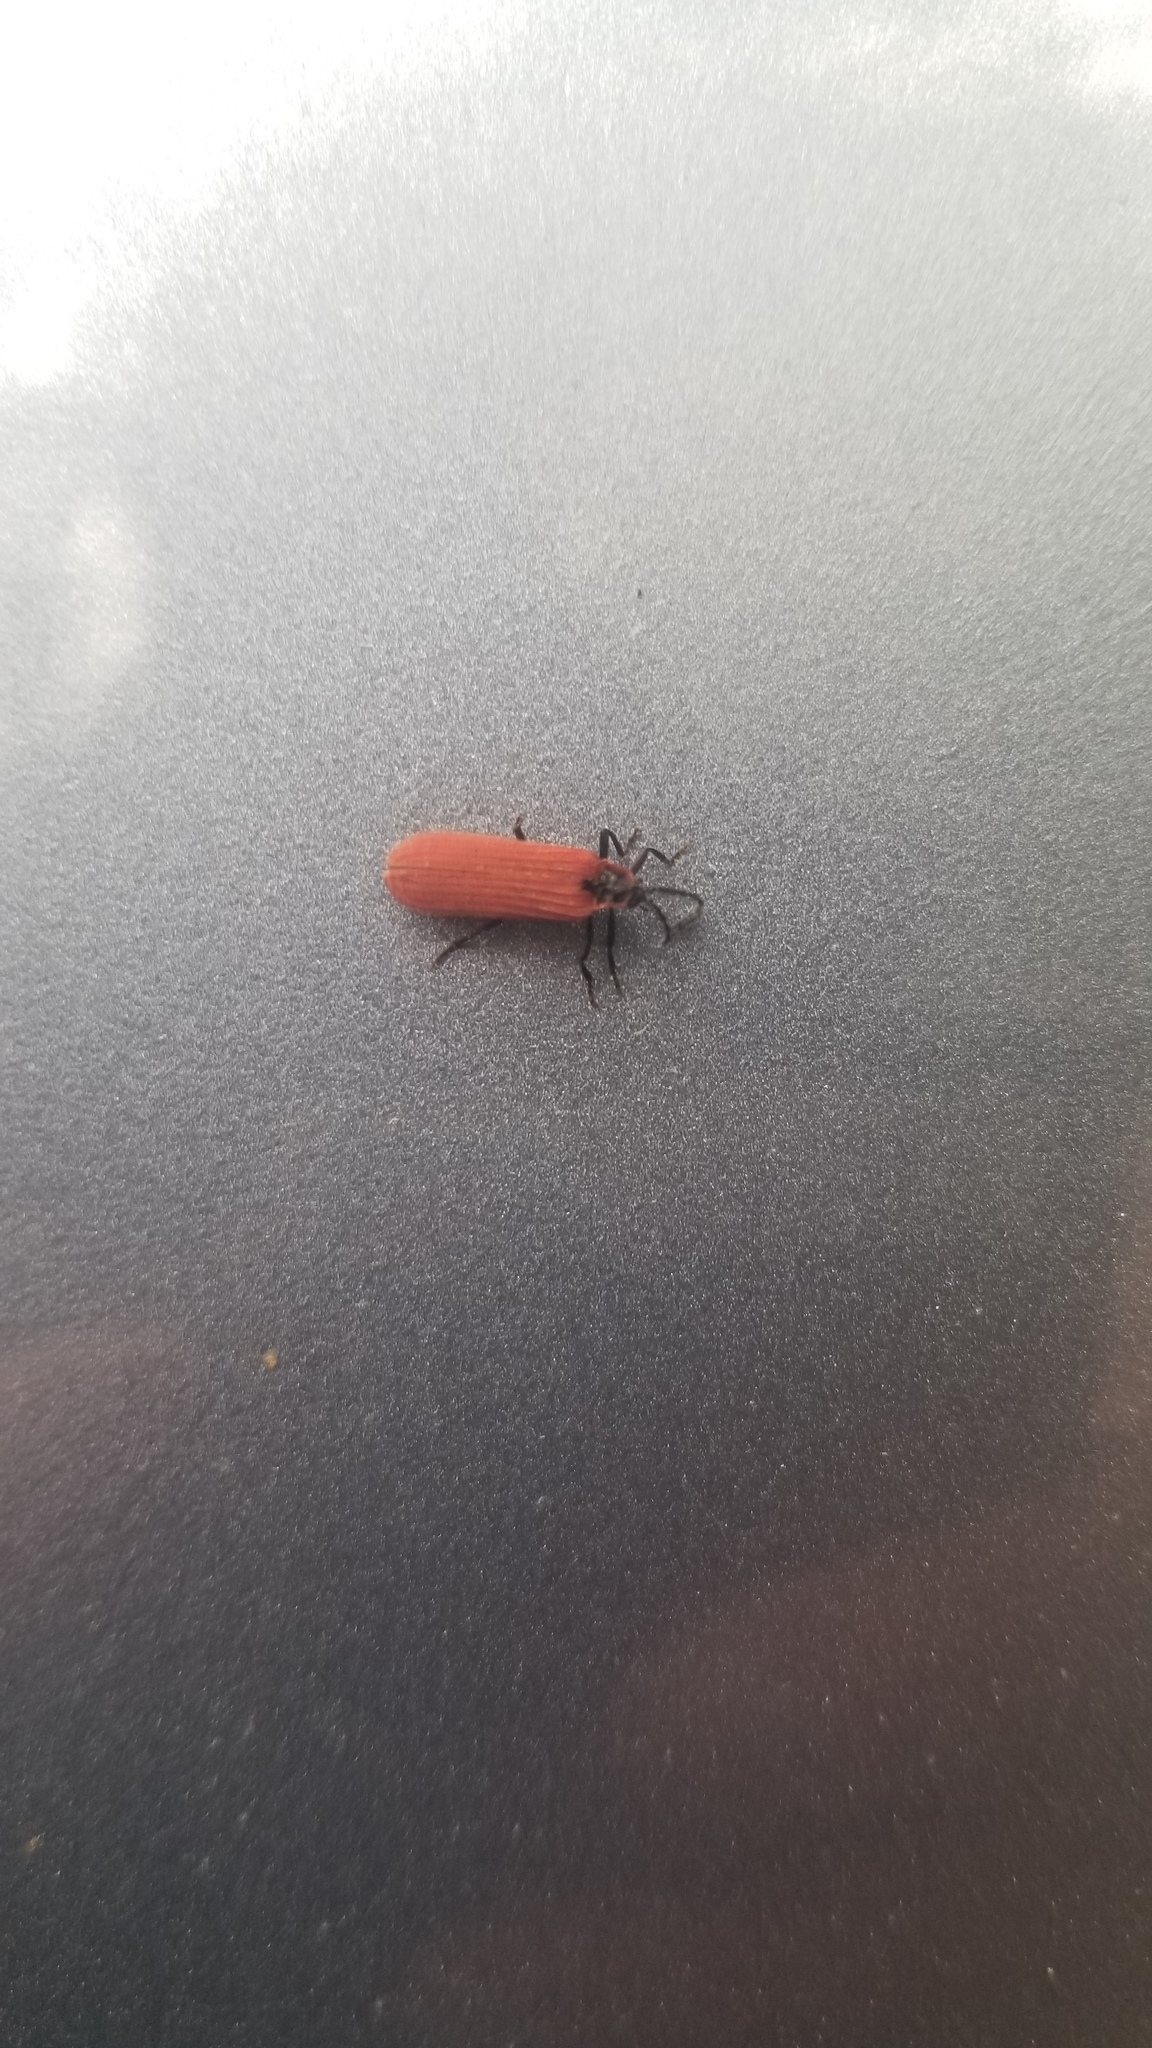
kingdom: Animalia
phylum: Arthropoda
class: Insecta
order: Coleoptera
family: Lycidae
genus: Dictyoptera
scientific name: Dictyoptera aurora
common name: Golden net-winged beetle
